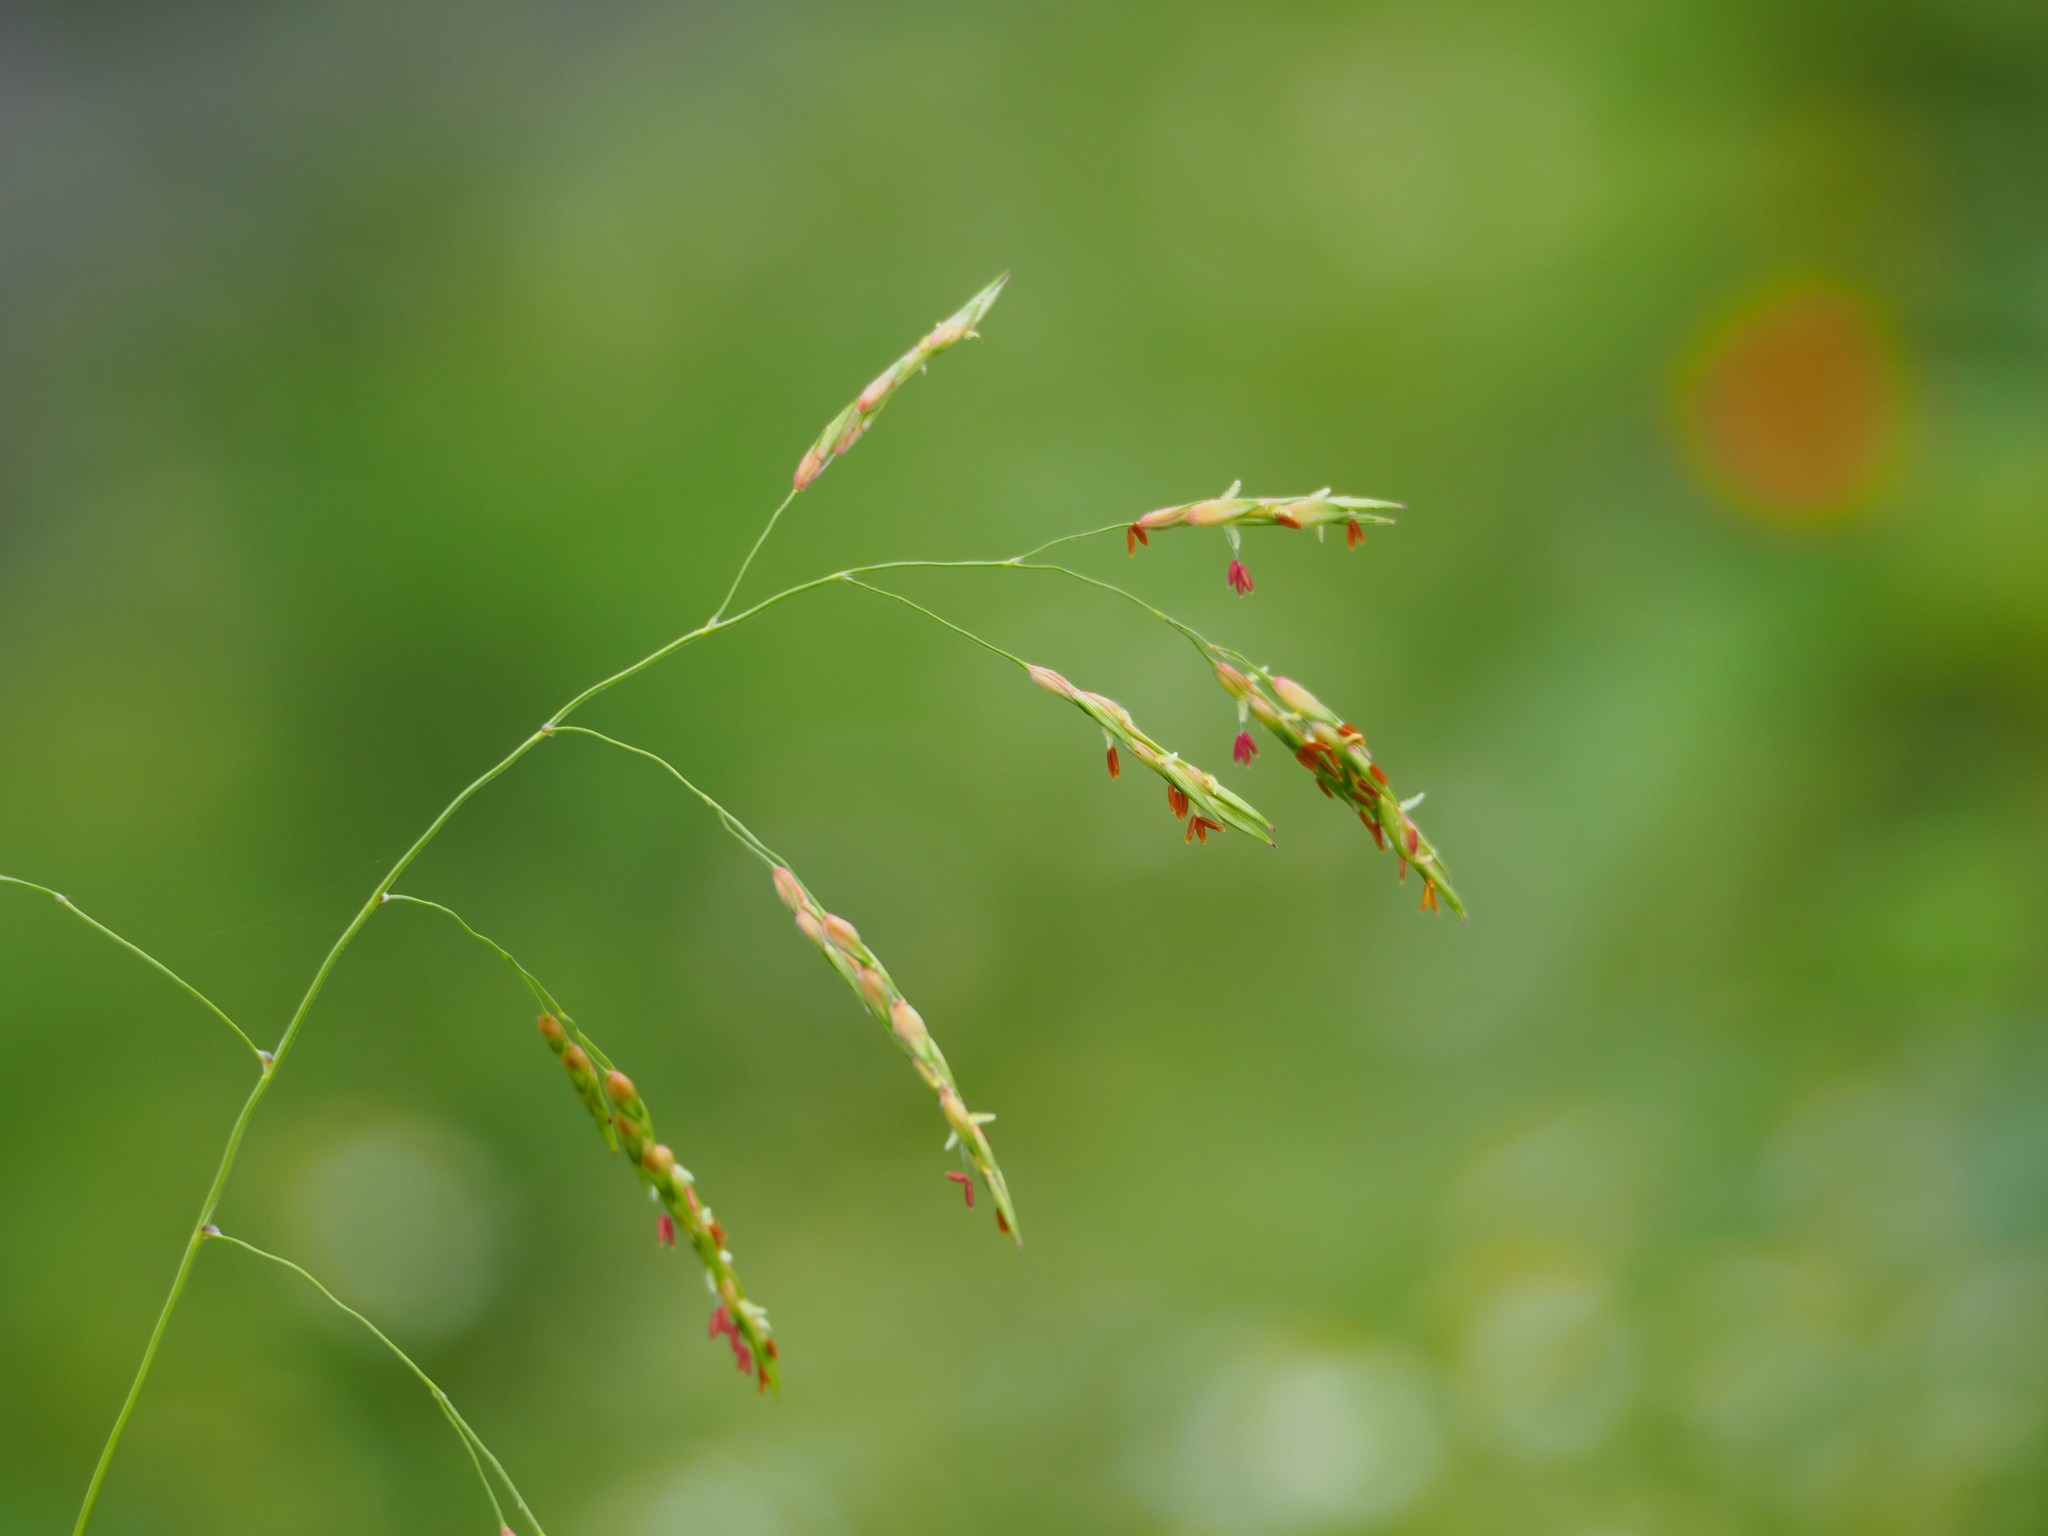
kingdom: Plantae
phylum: Tracheophyta
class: Liliopsida
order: Poales
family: Poaceae
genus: Sorghum
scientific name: Sorghum halepense
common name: Johnson-grass
